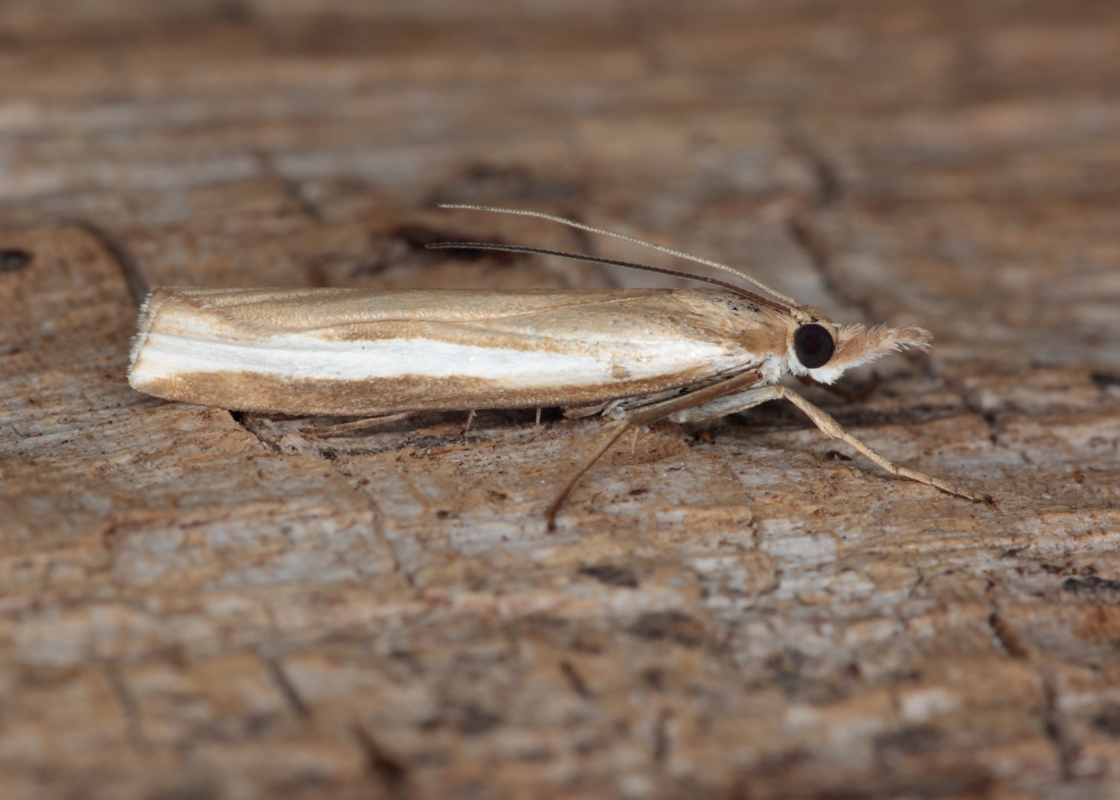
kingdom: Animalia
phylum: Arthropoda
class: Insecta
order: Lepidoptera
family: Crambidae
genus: Orocrambus
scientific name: Orocrambus horistes
